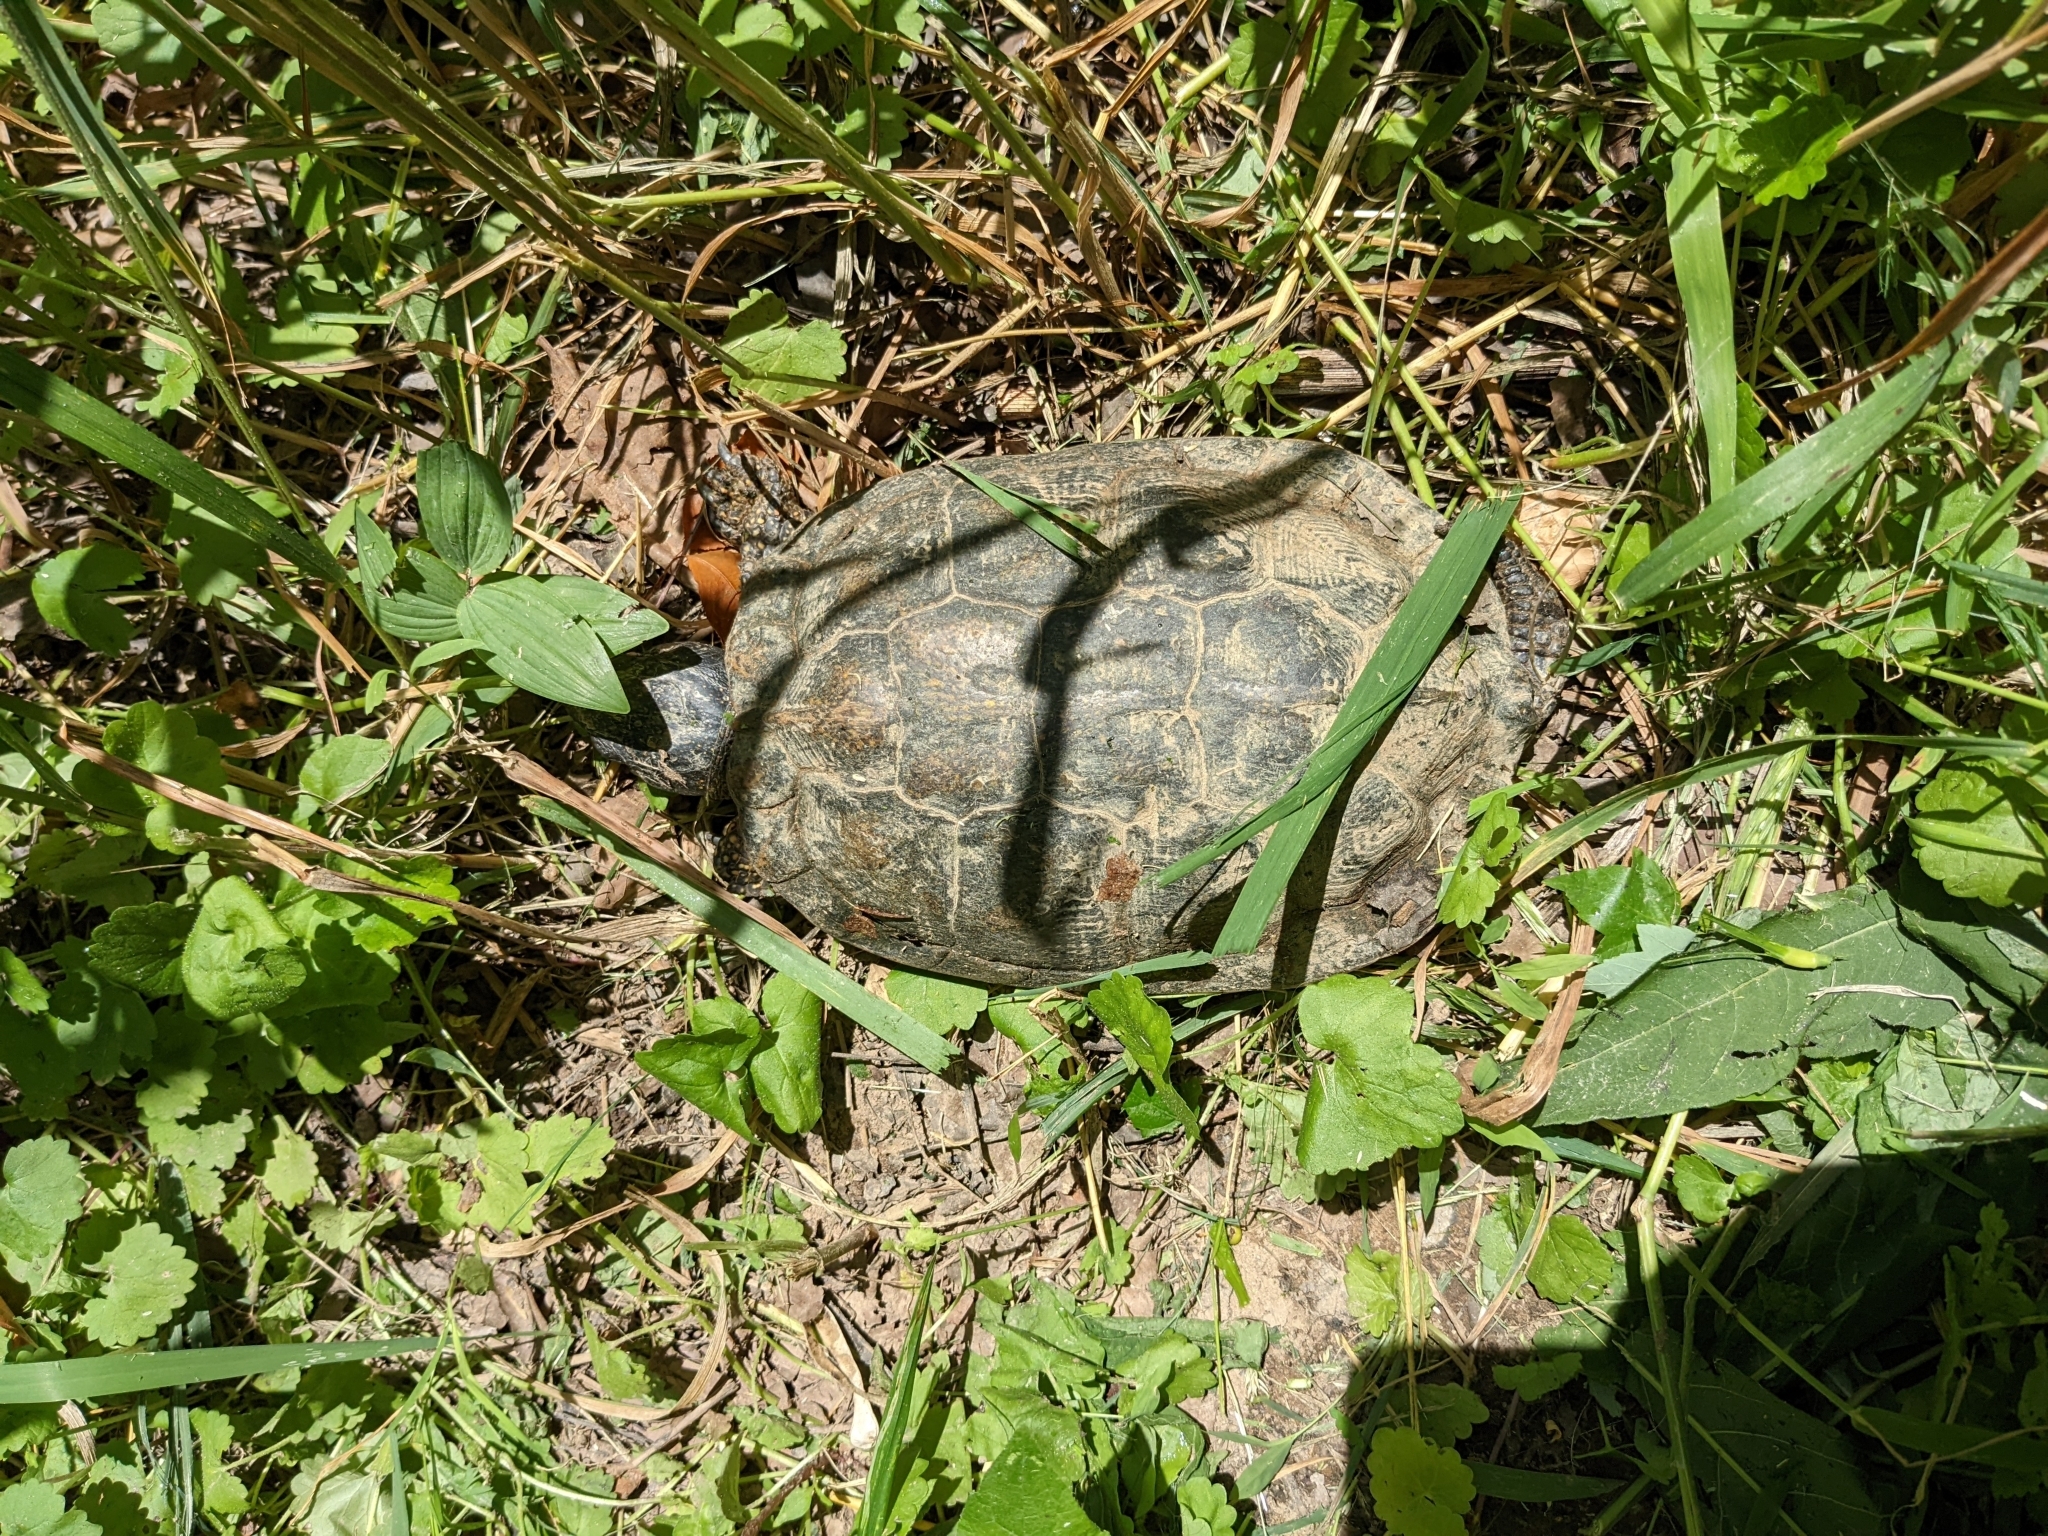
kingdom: Animalia
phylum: Chordata
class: Testudines
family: Emydidae
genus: Glyptemys
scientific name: Glyptemys insculpta
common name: Wood turtle
